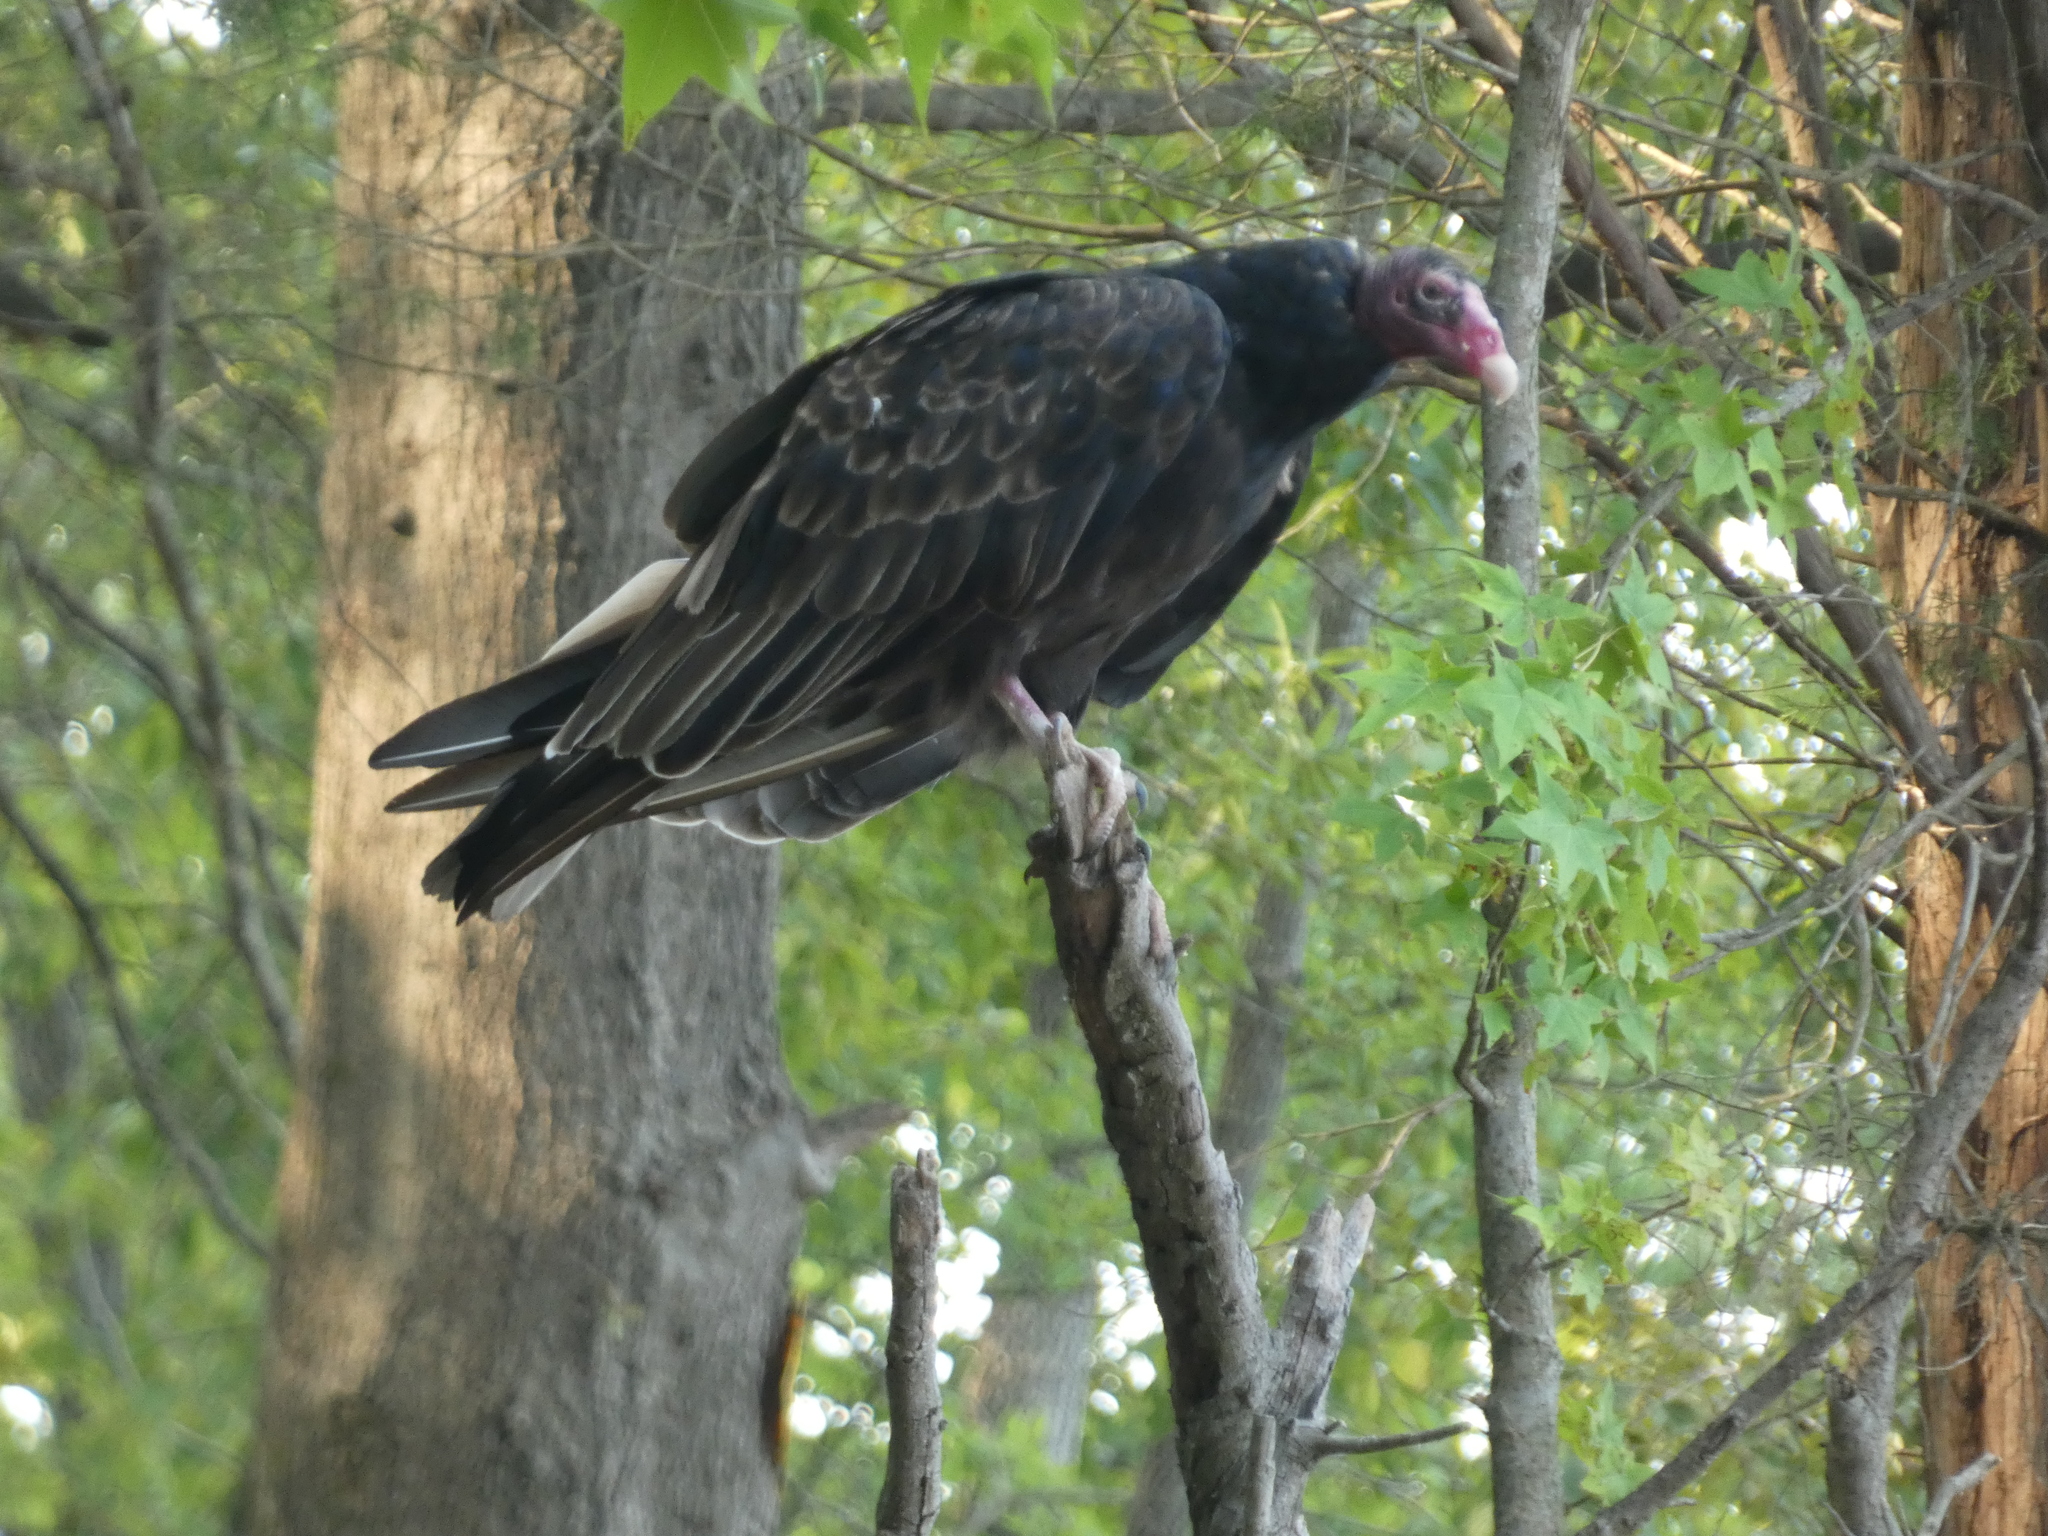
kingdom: Animalia
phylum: Chordata
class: Aves
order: Accipitriformes
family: Cathartidae
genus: Cathartes
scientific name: Cathartes aura
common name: Turkey vulture
